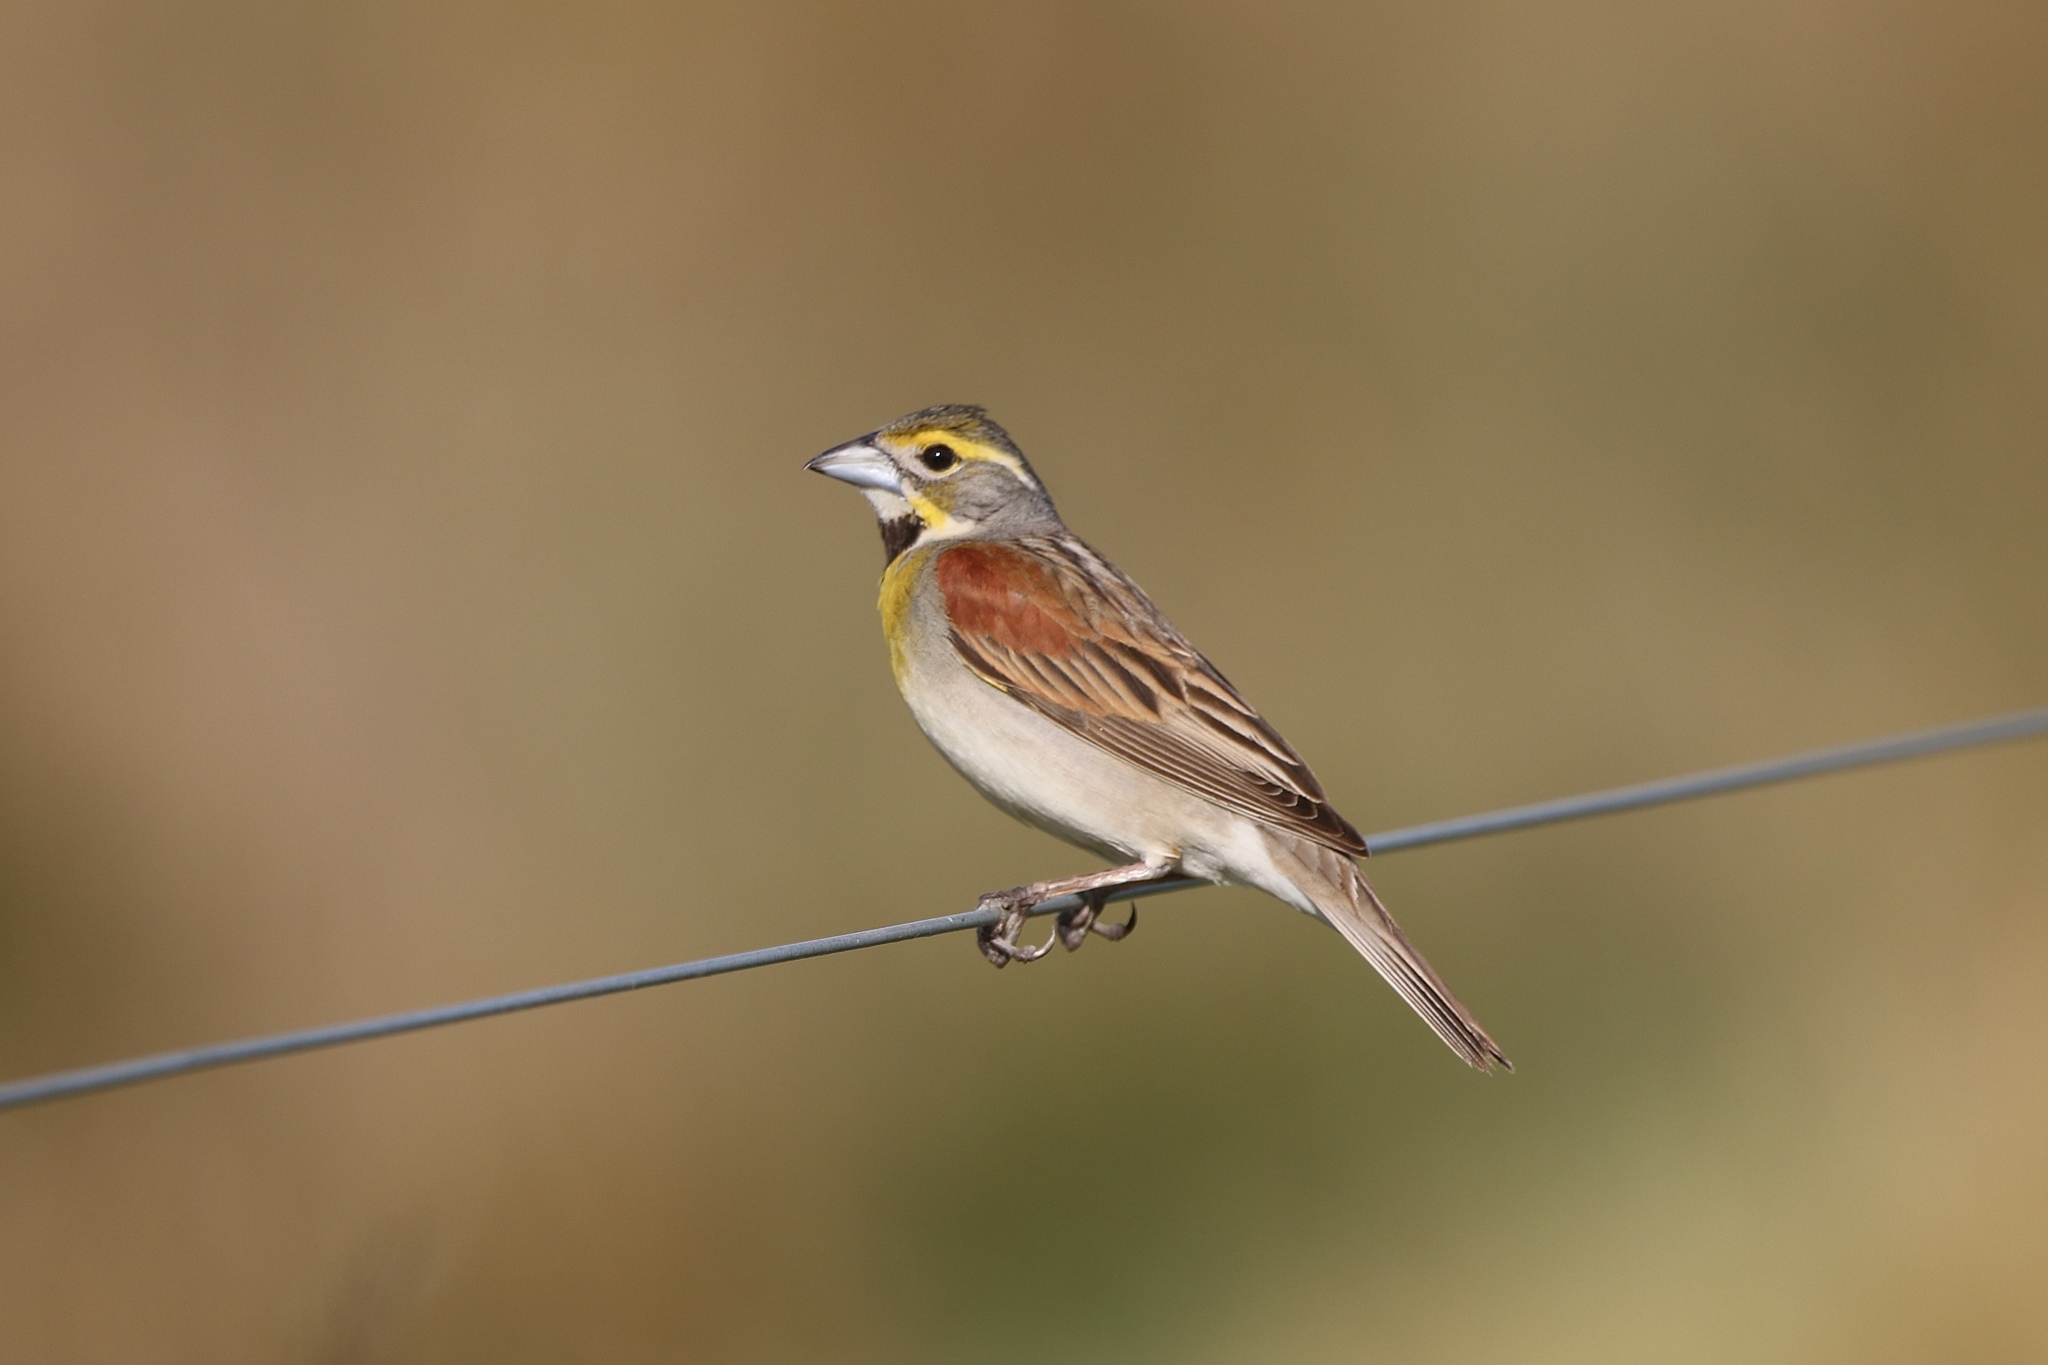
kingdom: Animalia
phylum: Chordata
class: Aves
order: Passeriformes
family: Cardinalidae
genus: Spiza
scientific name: Spiza americana
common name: Dickcissel
